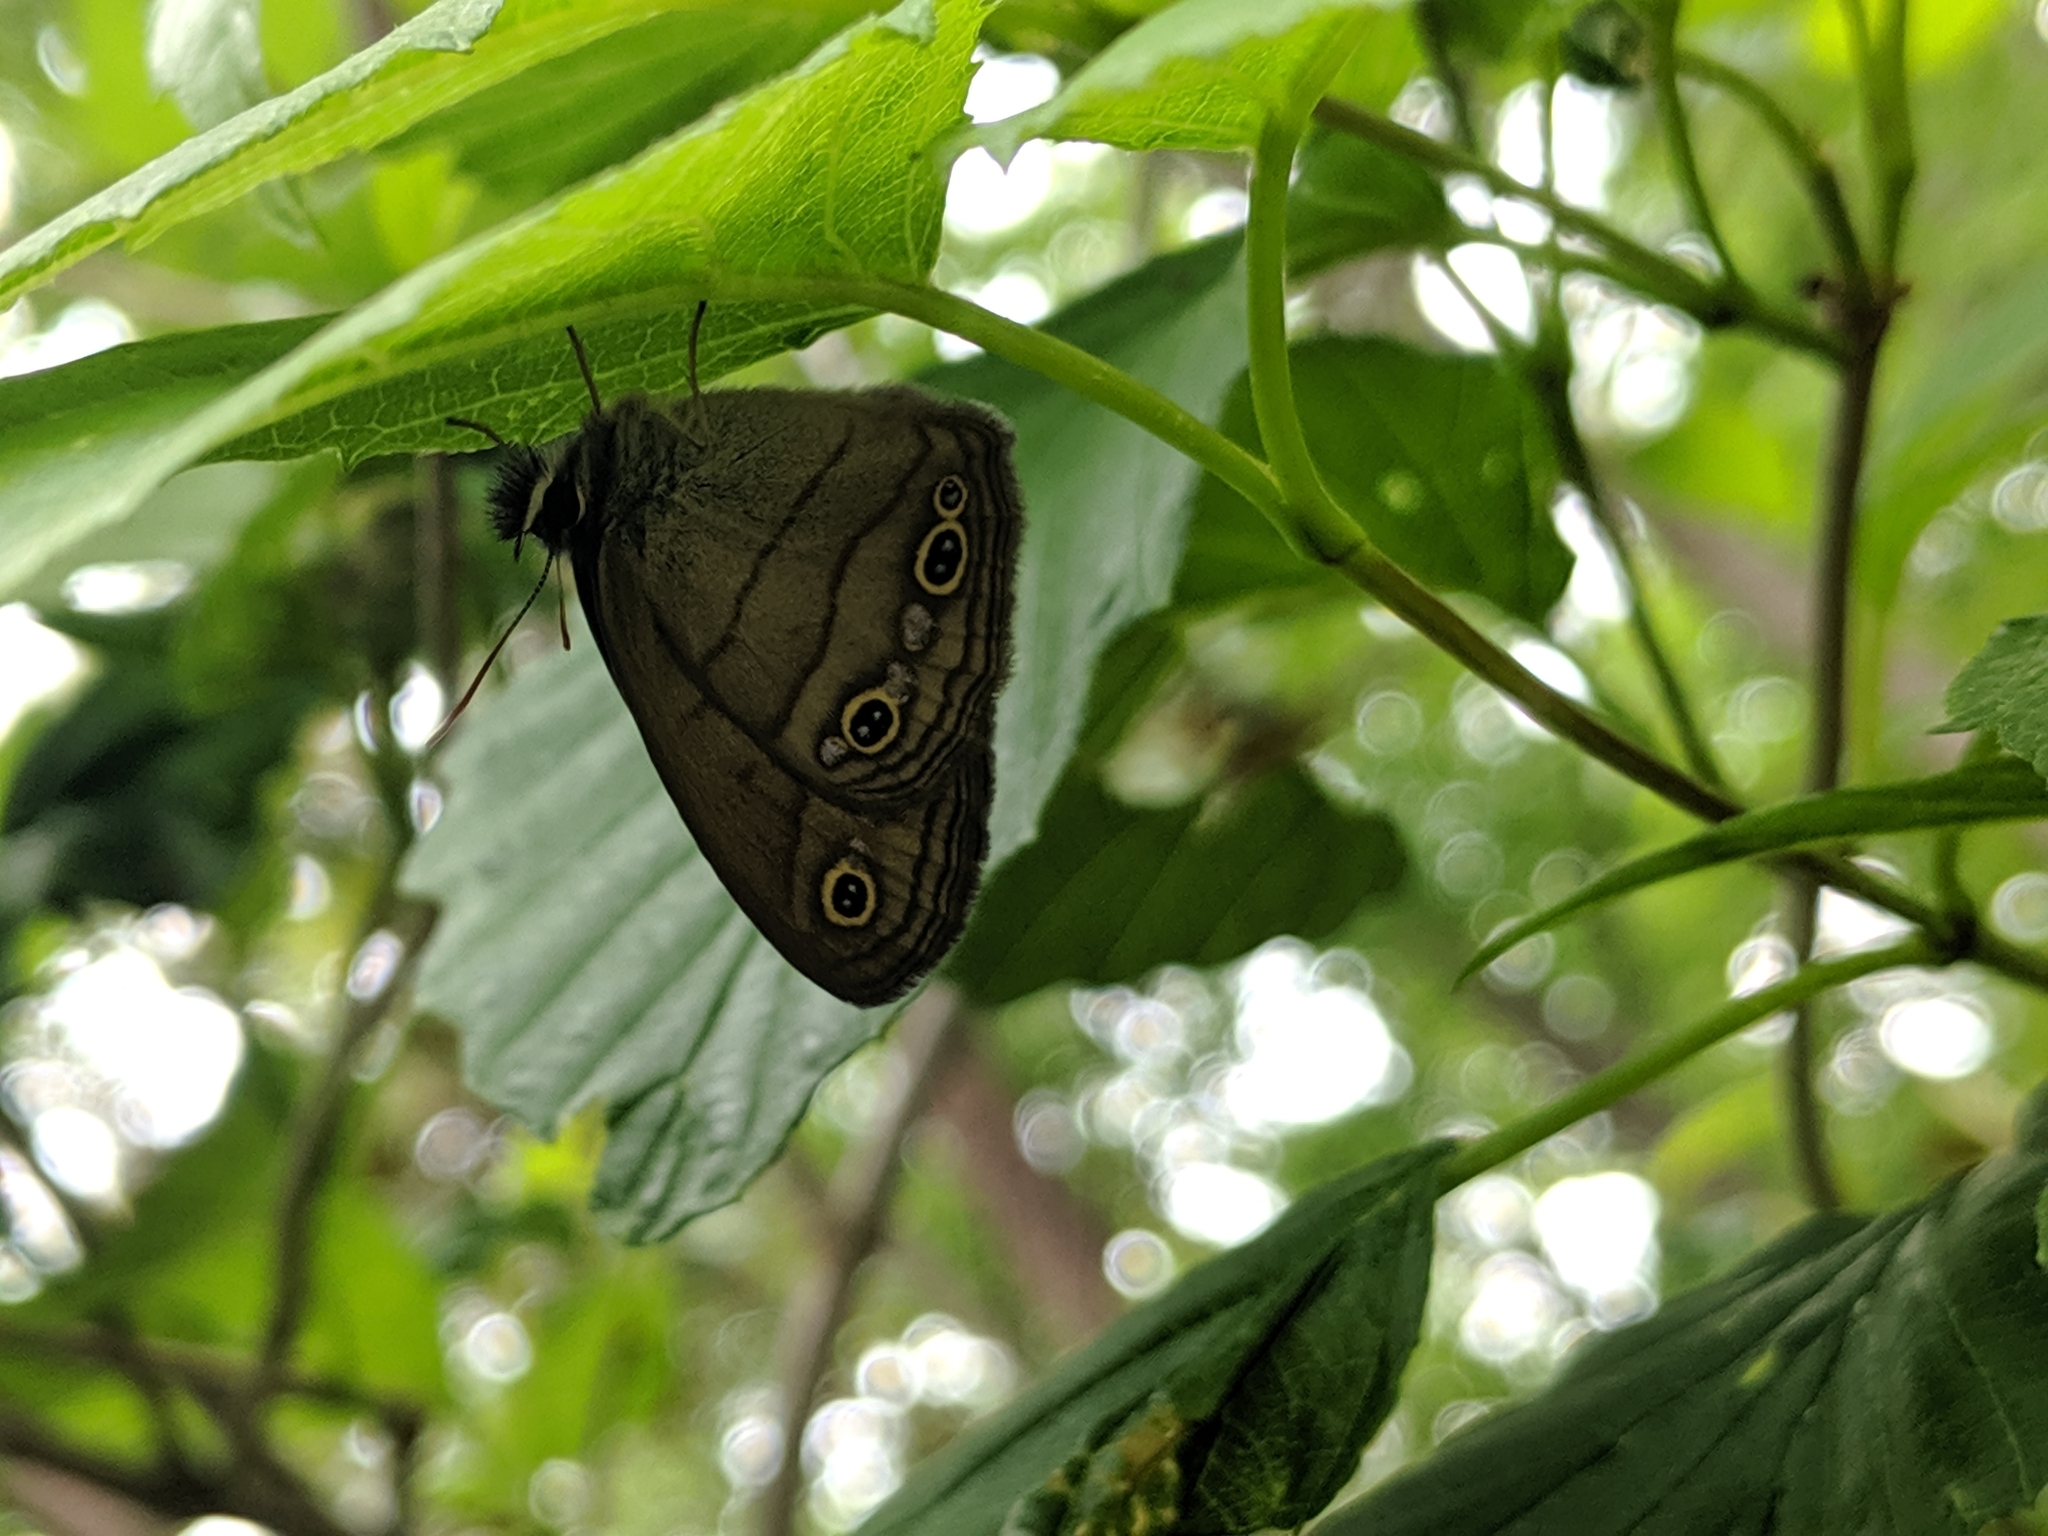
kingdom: Animalia
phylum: Arthropoda
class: Insecta
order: Lepidoptera
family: Nymphalidae
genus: Euptychia
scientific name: Euptychia cymela
